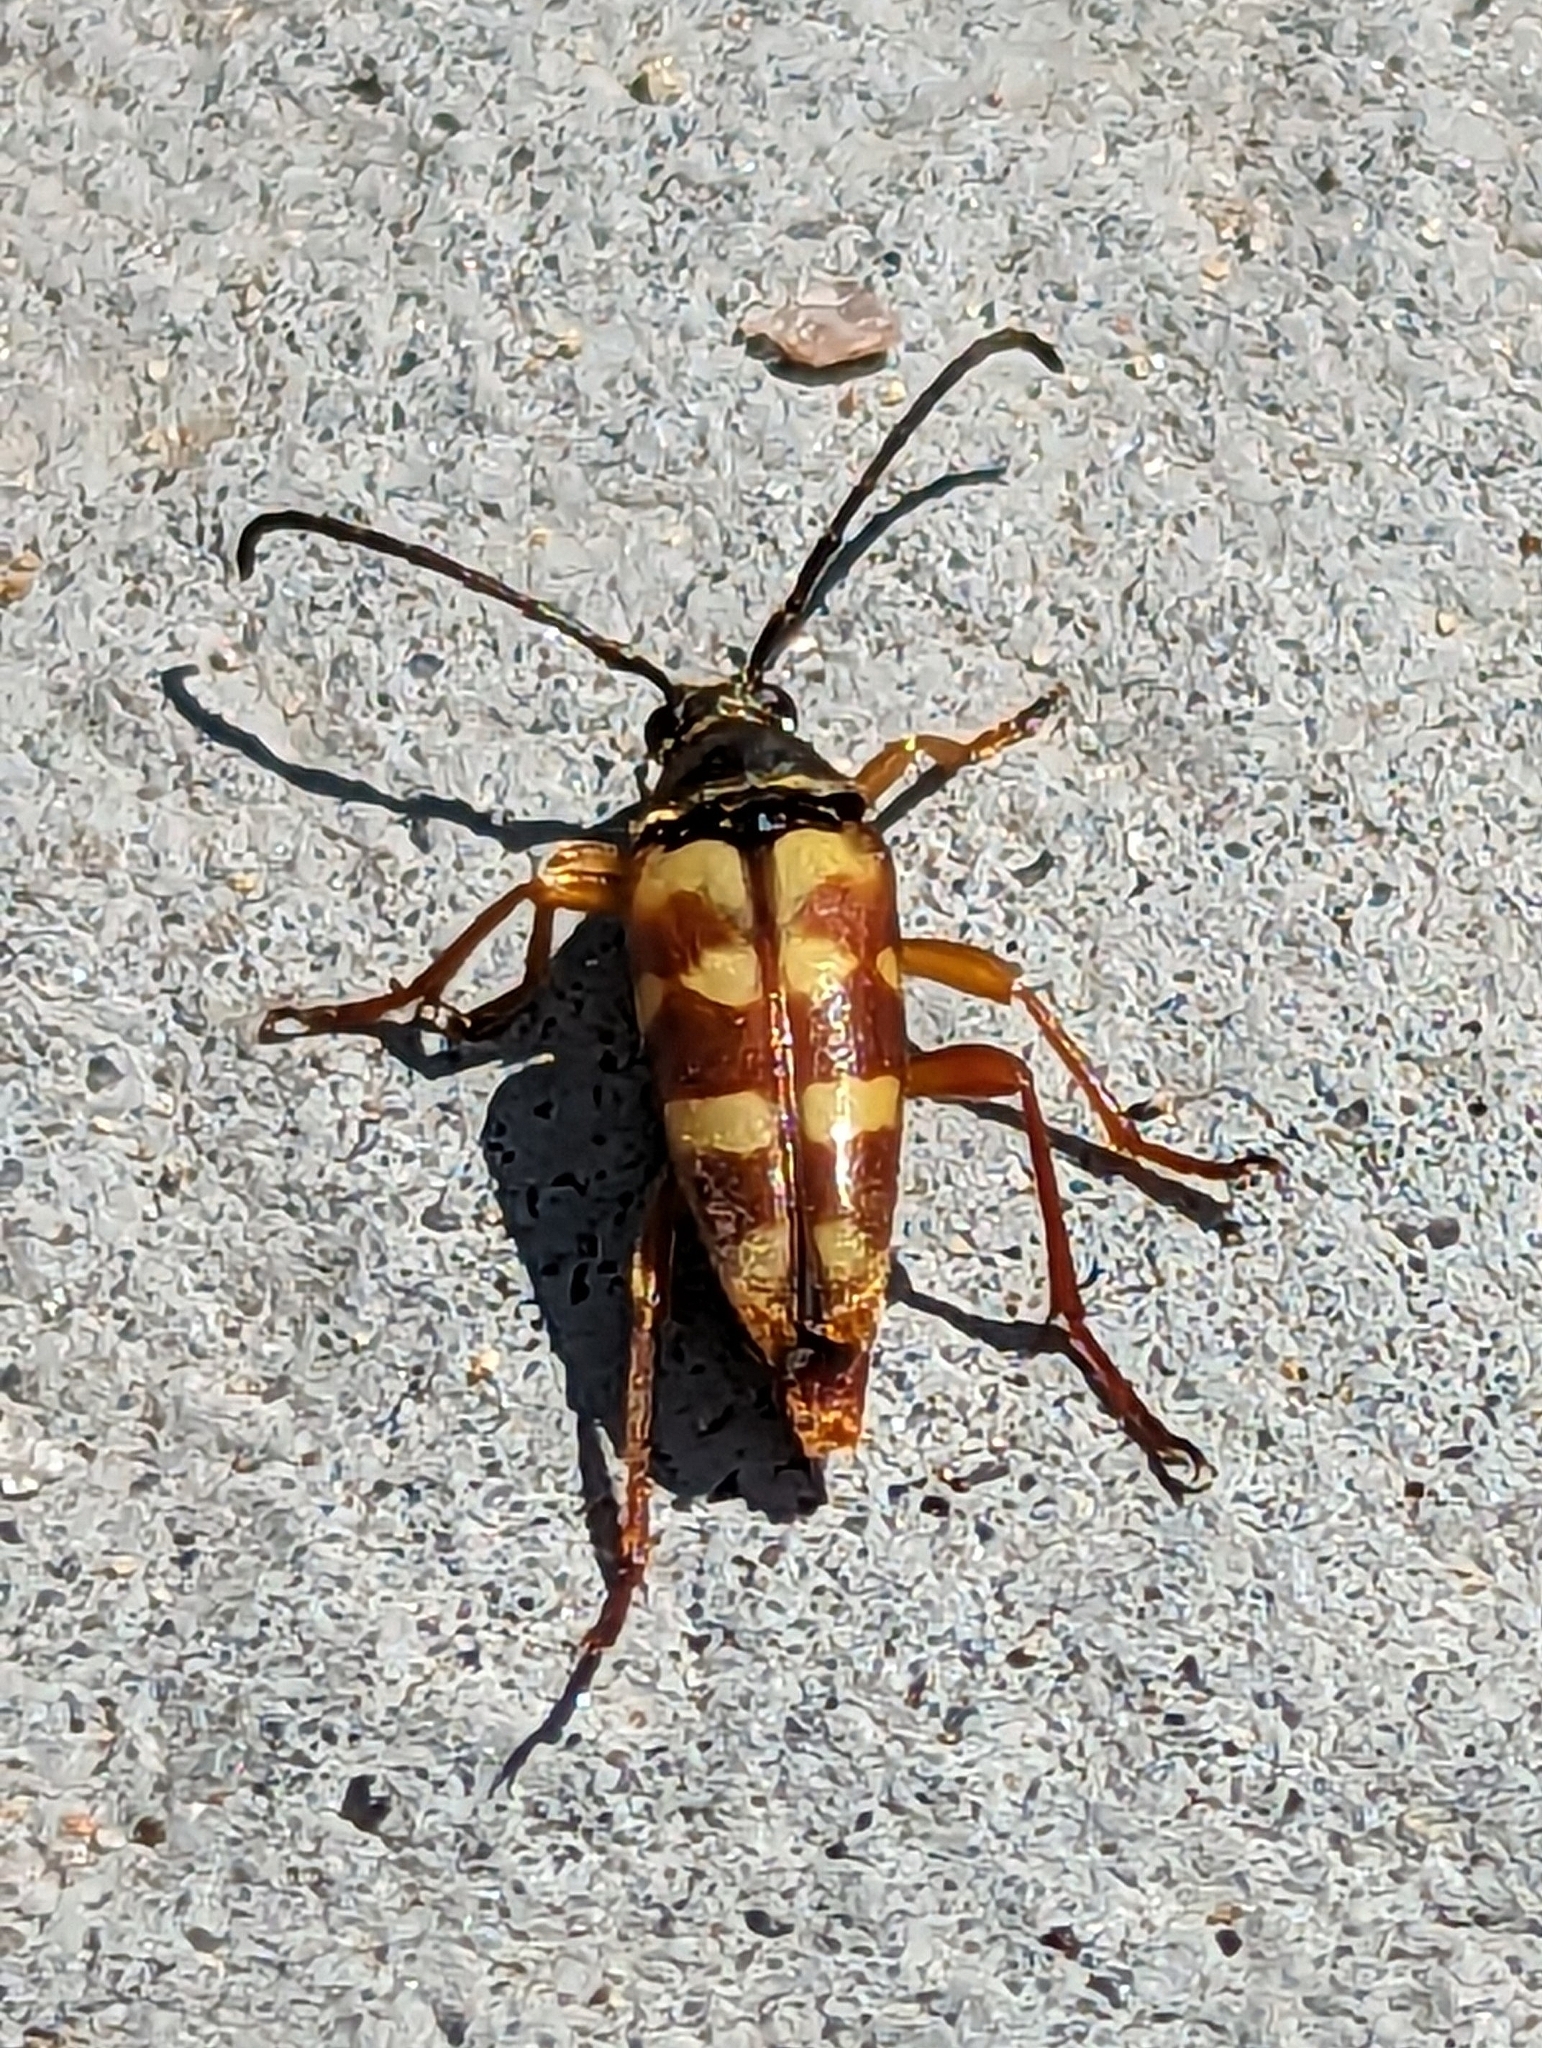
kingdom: Animalia
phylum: Arthropoda
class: Insecta
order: Coleoptera
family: Cerambycidae
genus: Typocerus
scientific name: Typocerus velutinus
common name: Banded longhorn beetle
